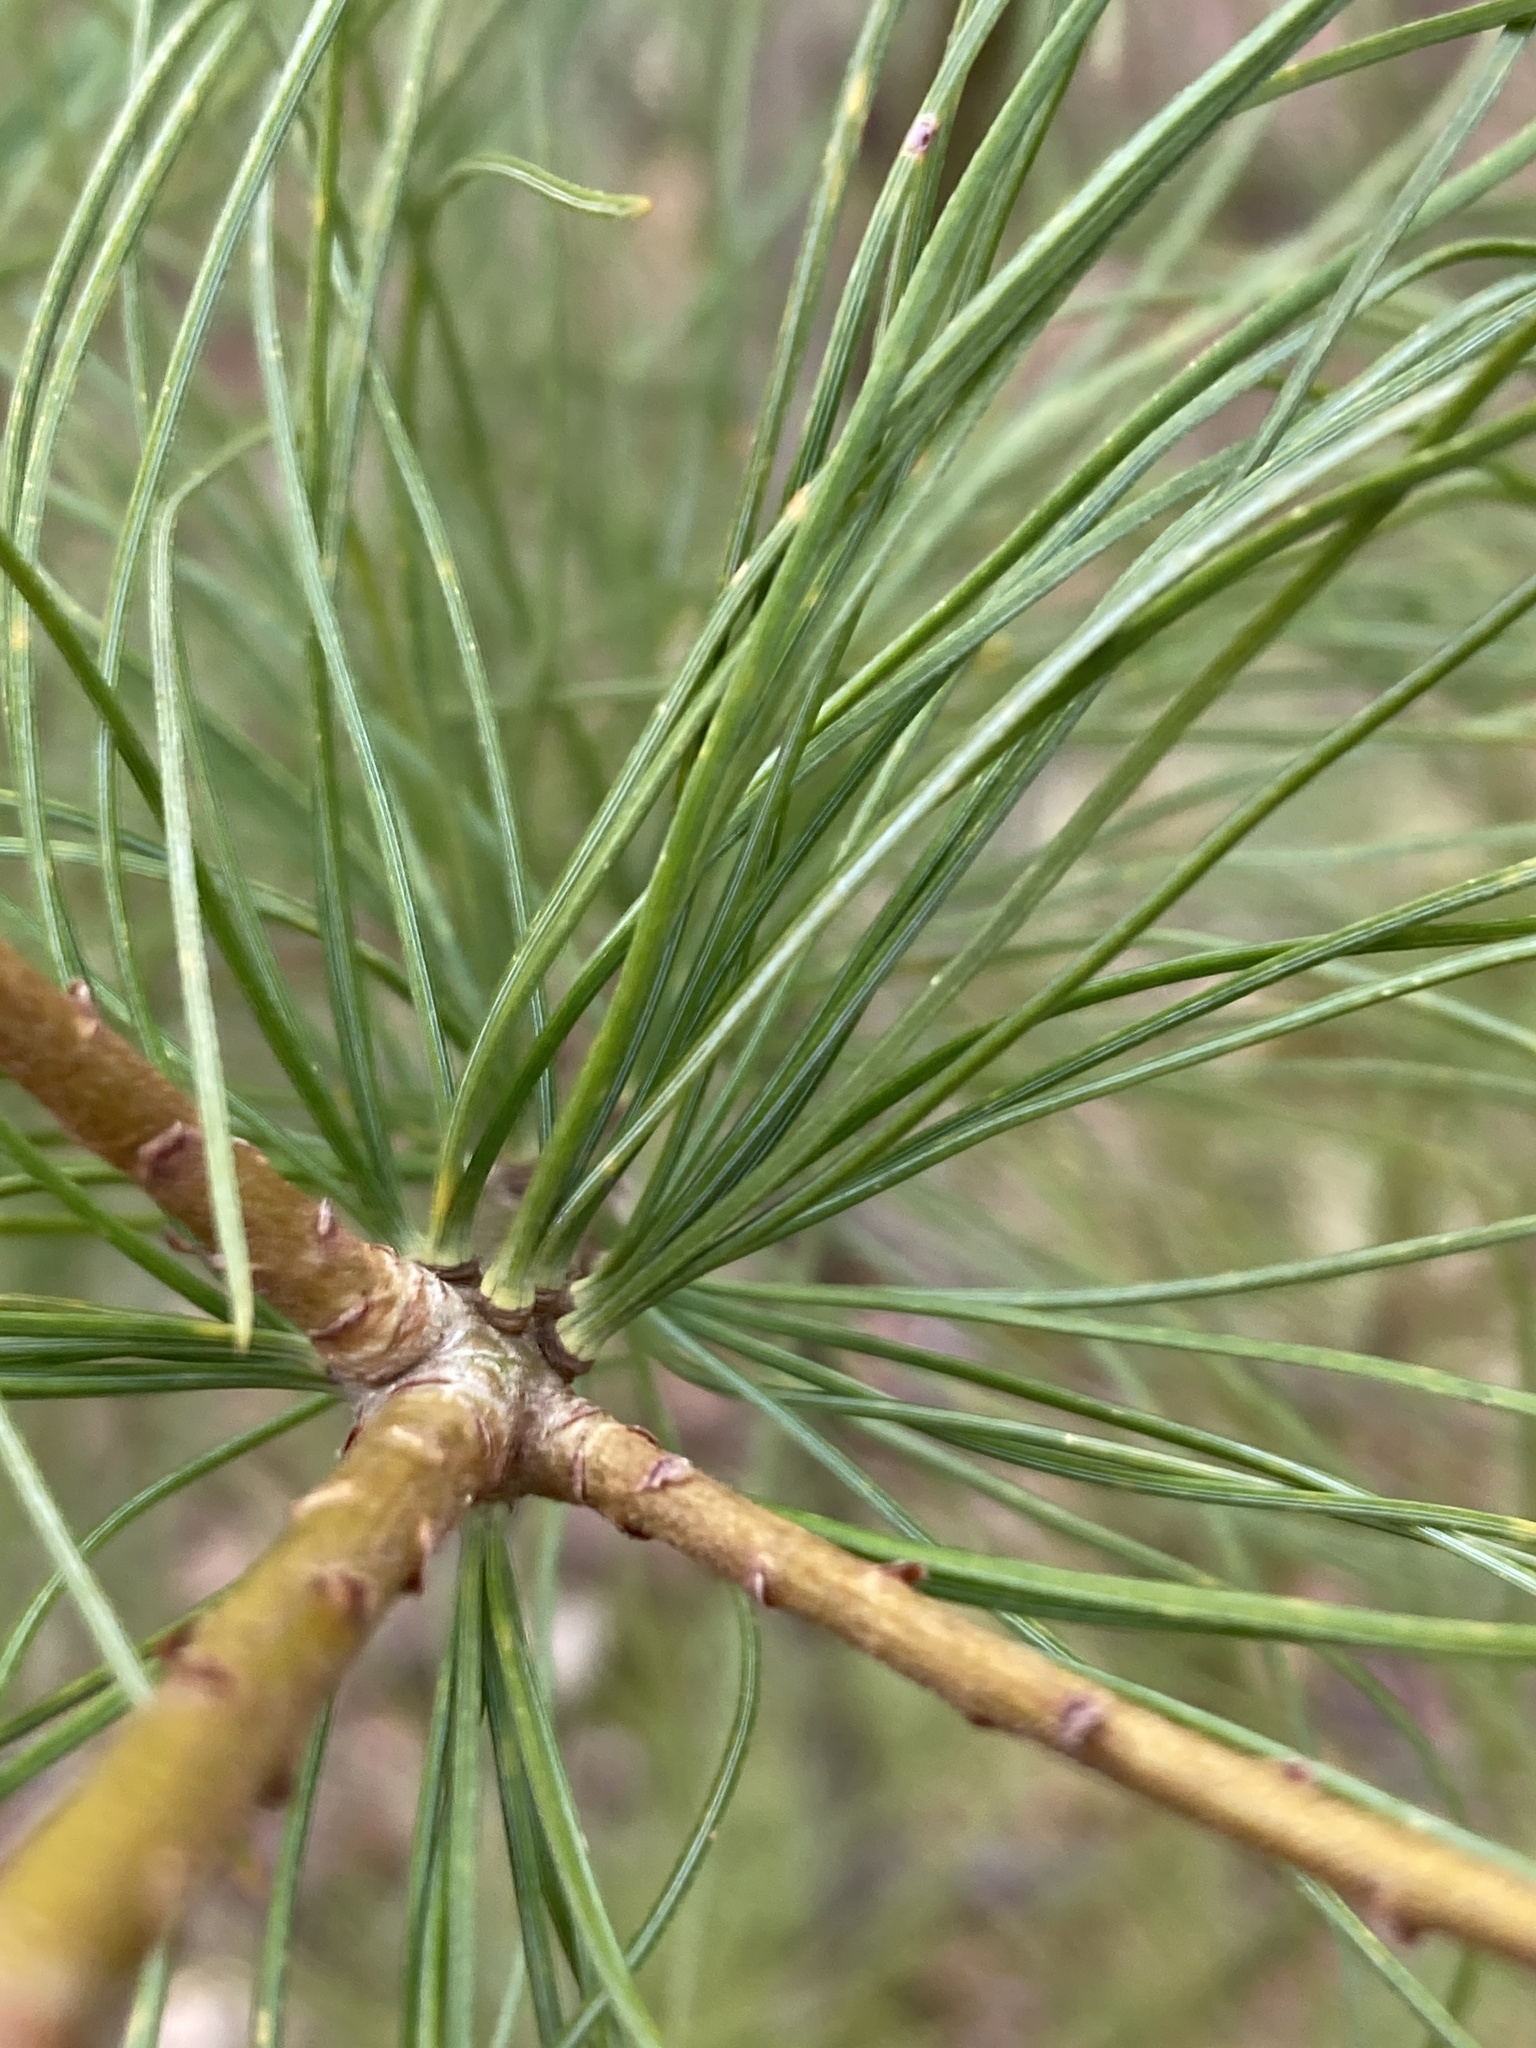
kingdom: Plantae
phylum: Tracheophyta
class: Pinopsida
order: Pinales
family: Pinaceae
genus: Pinus
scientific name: Pinus strobus
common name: Weymouth pine
